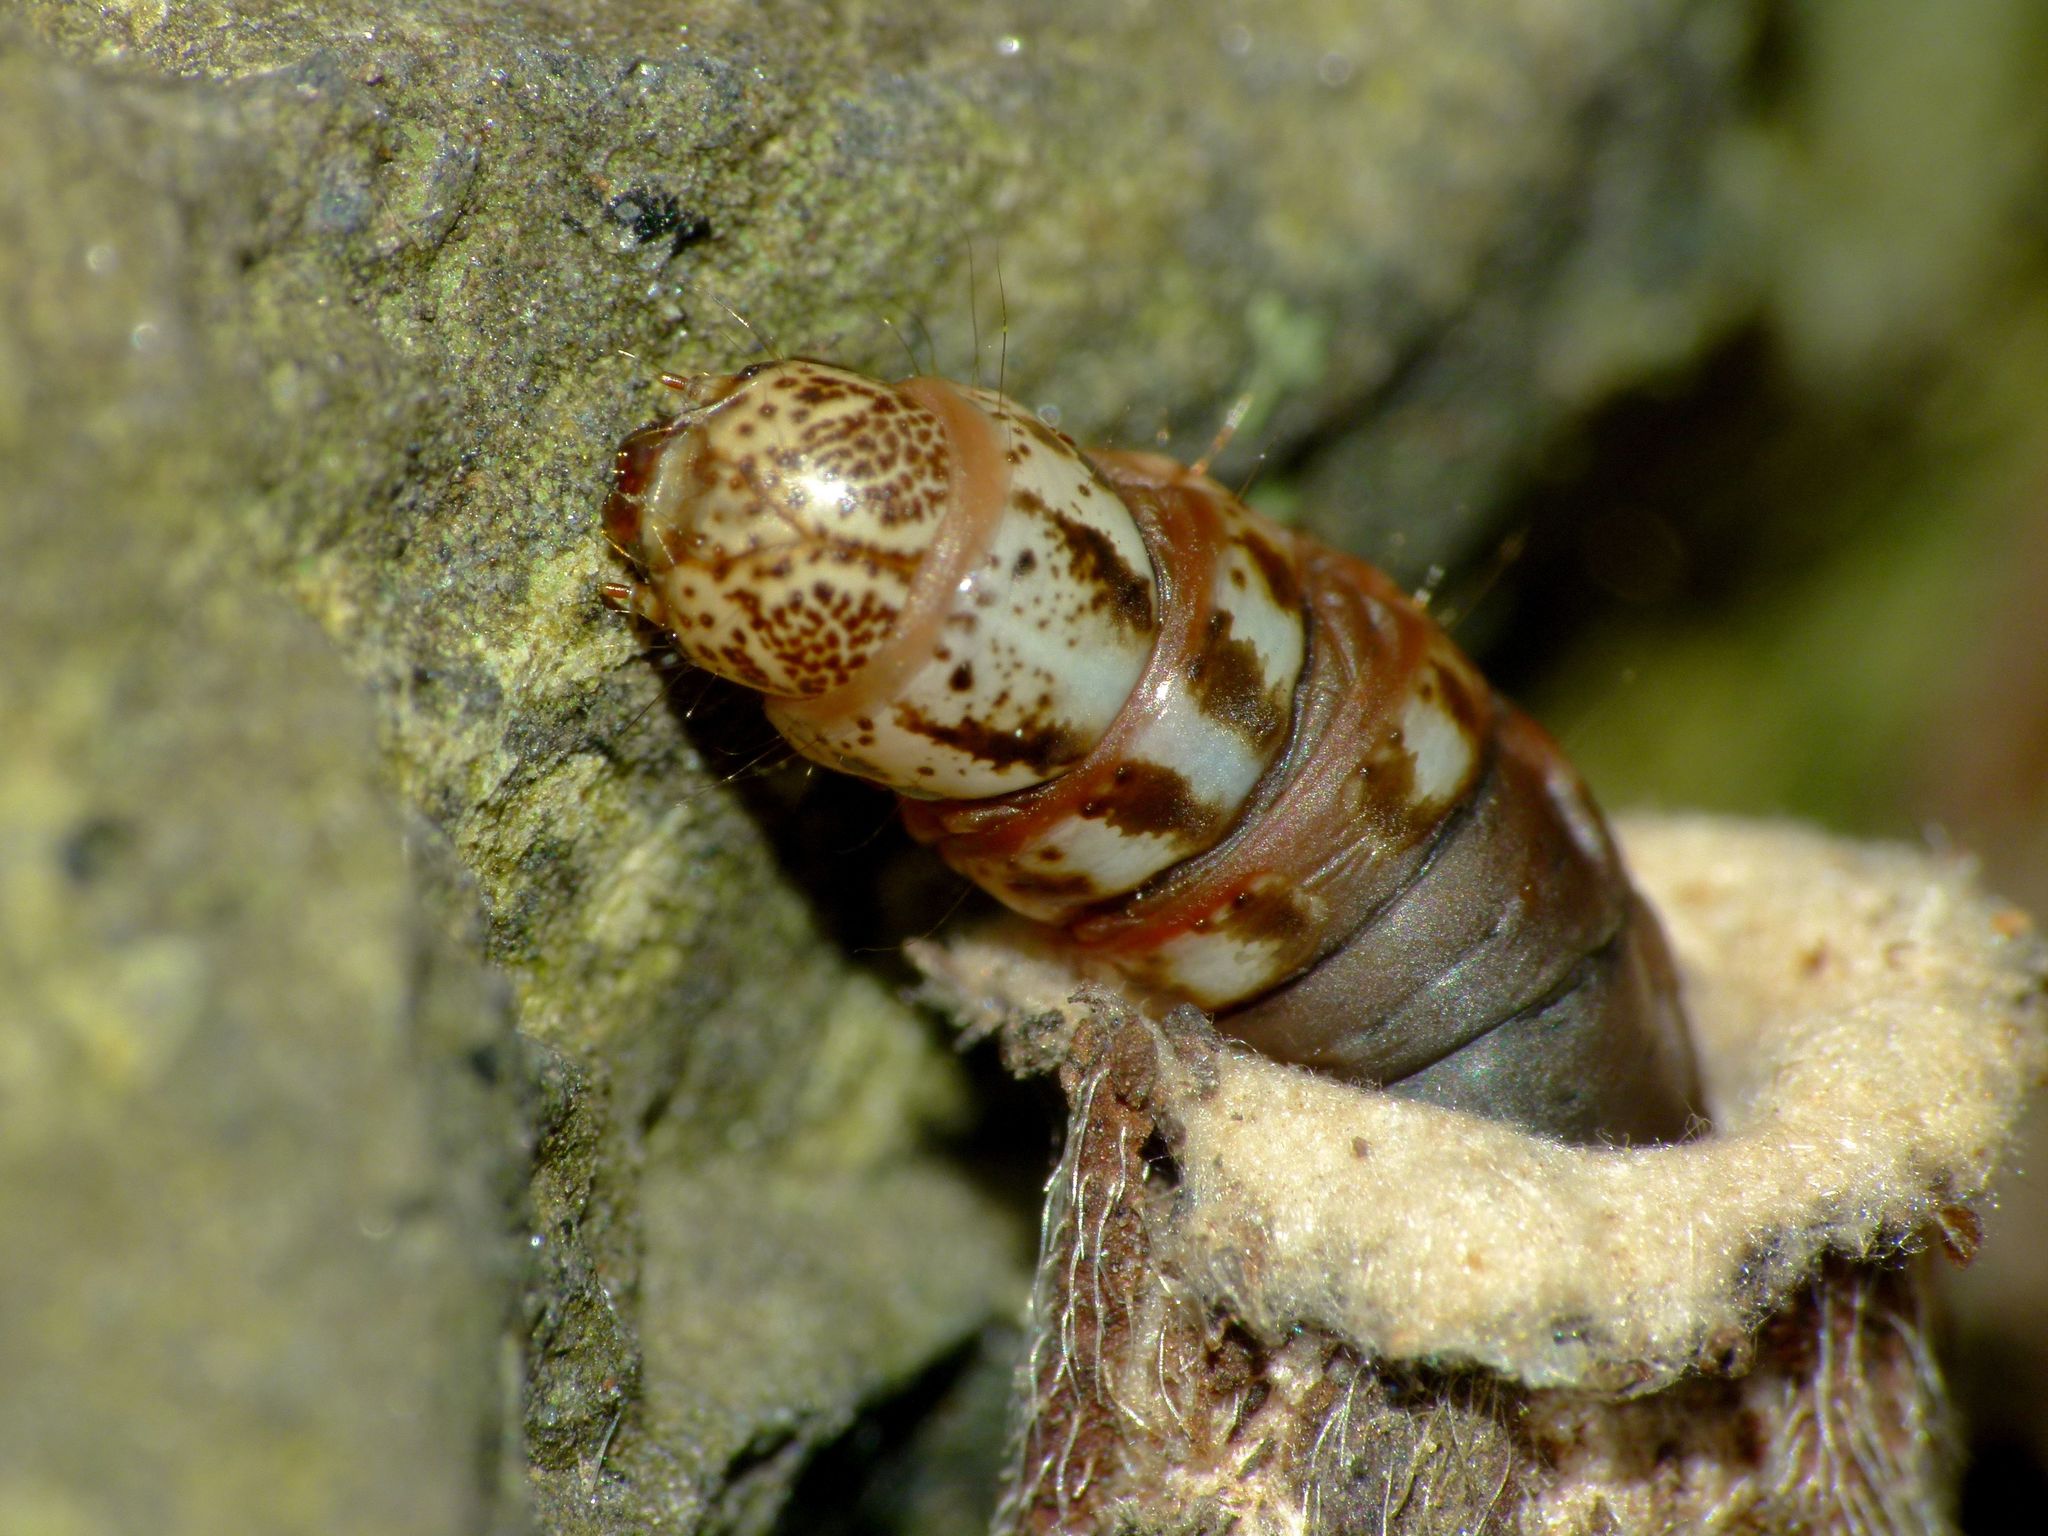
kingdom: Animalia
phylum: Arthropoda
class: Insecta
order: Lepidoptera
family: Psychidae
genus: Liothula
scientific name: Liothula omnivora
